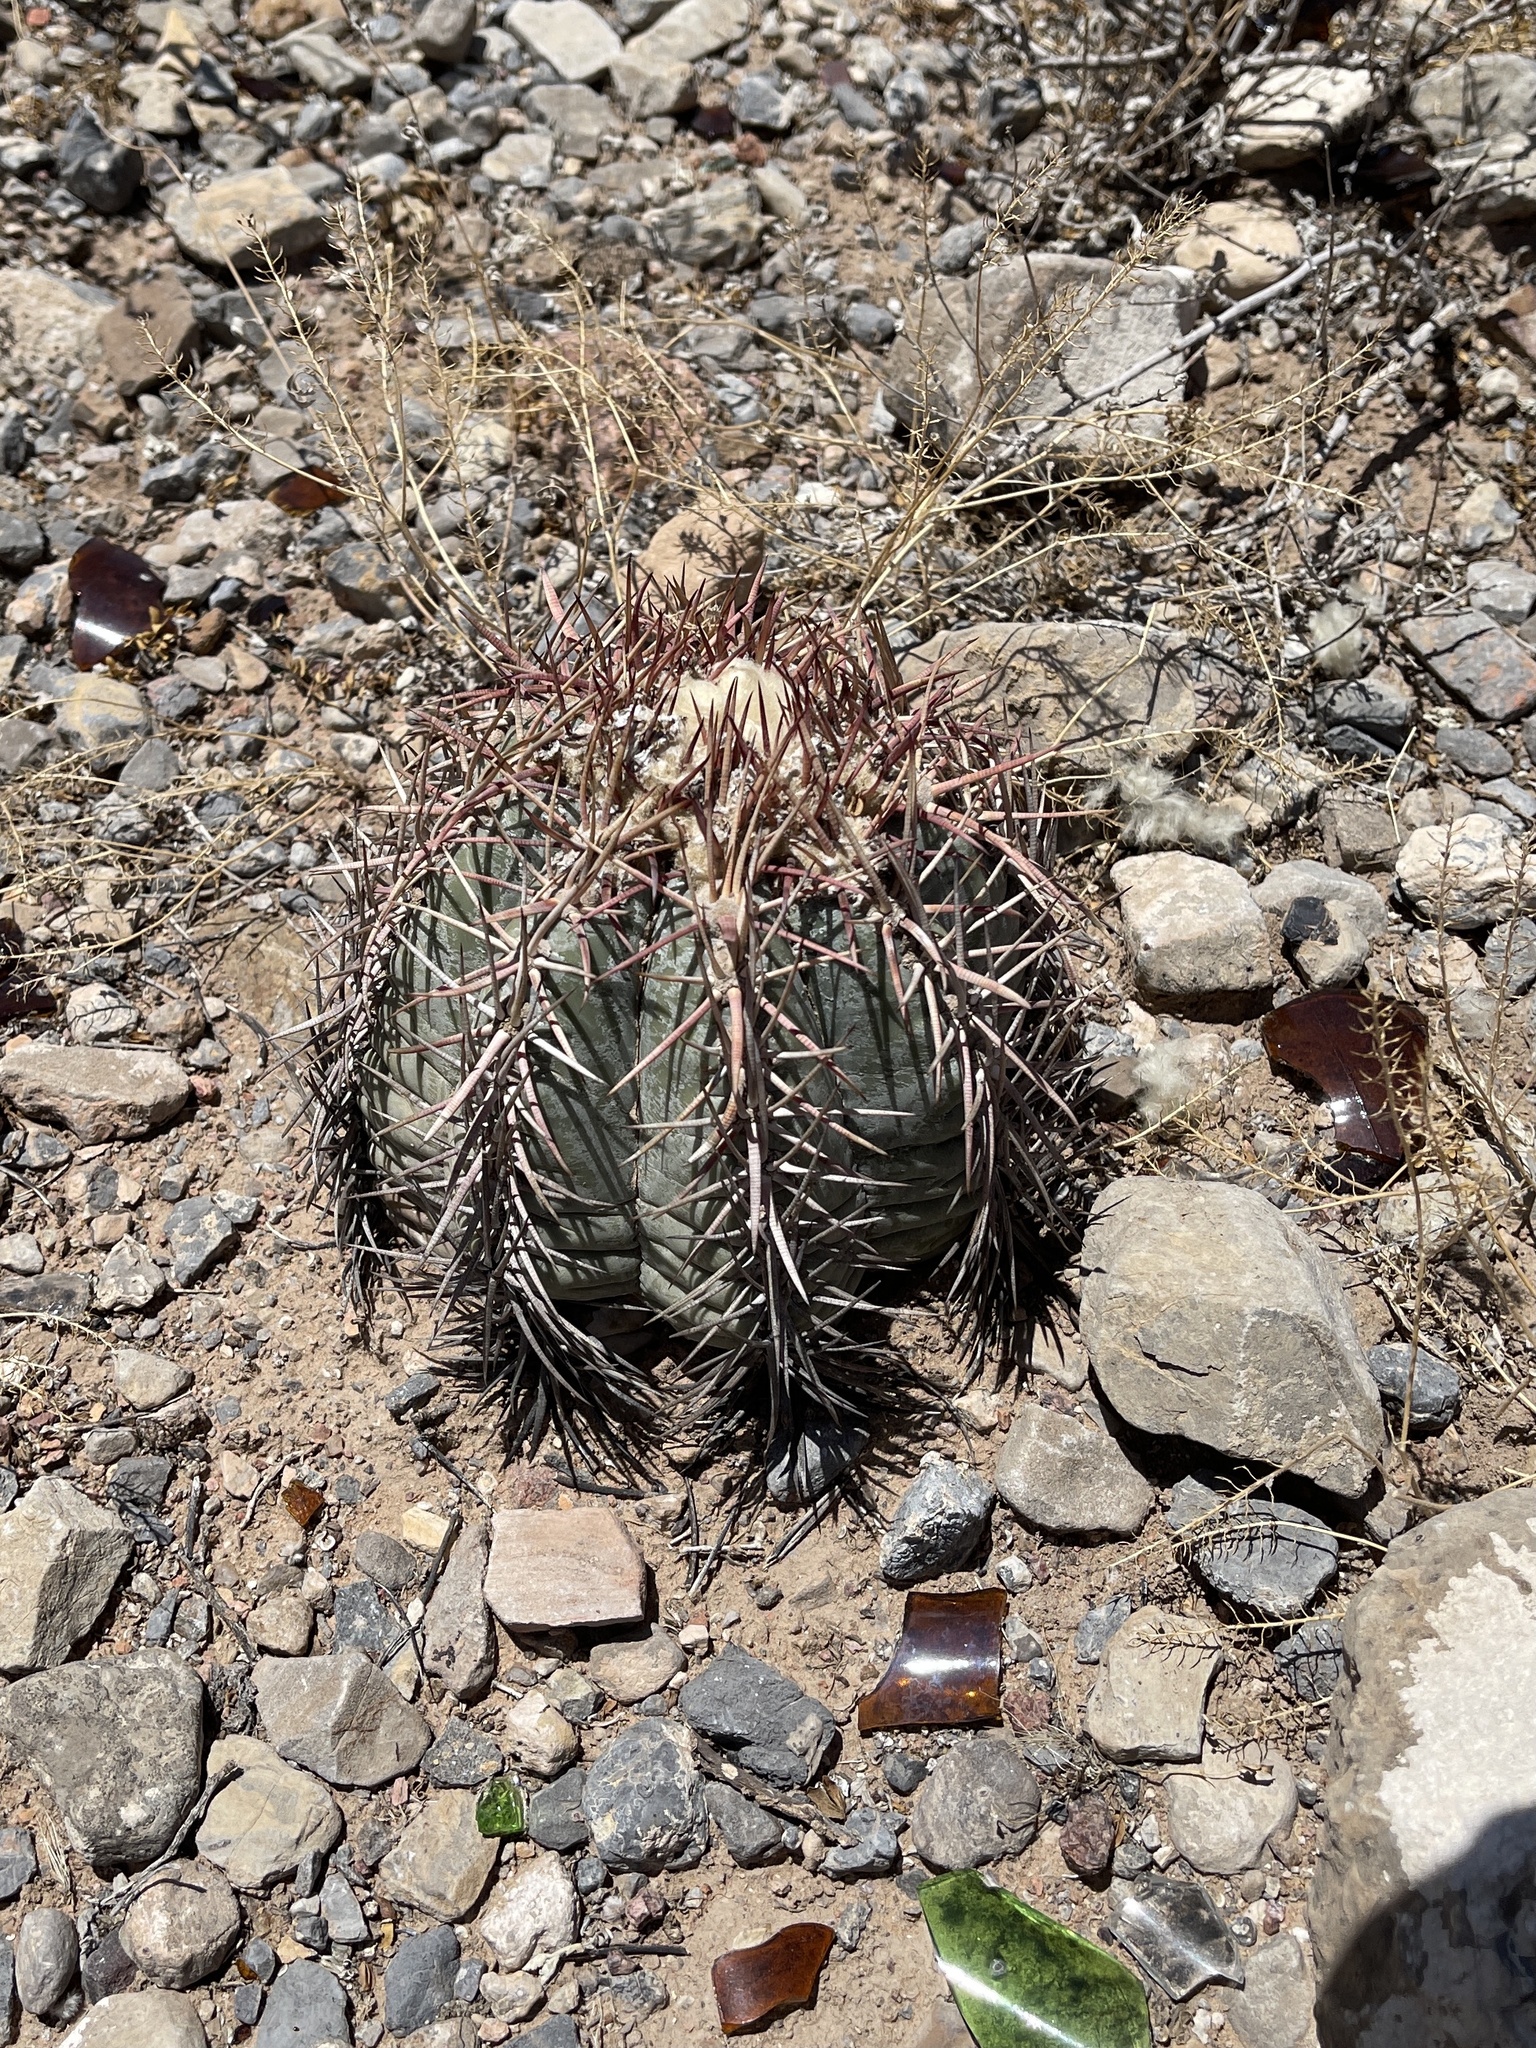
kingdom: Plantae
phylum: Tracheophyta
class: Magnoliopsida
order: Caryophyllales
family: Cactaceae
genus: Echinocactus
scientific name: Echinocactus horizonthalonius
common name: Devilshead
